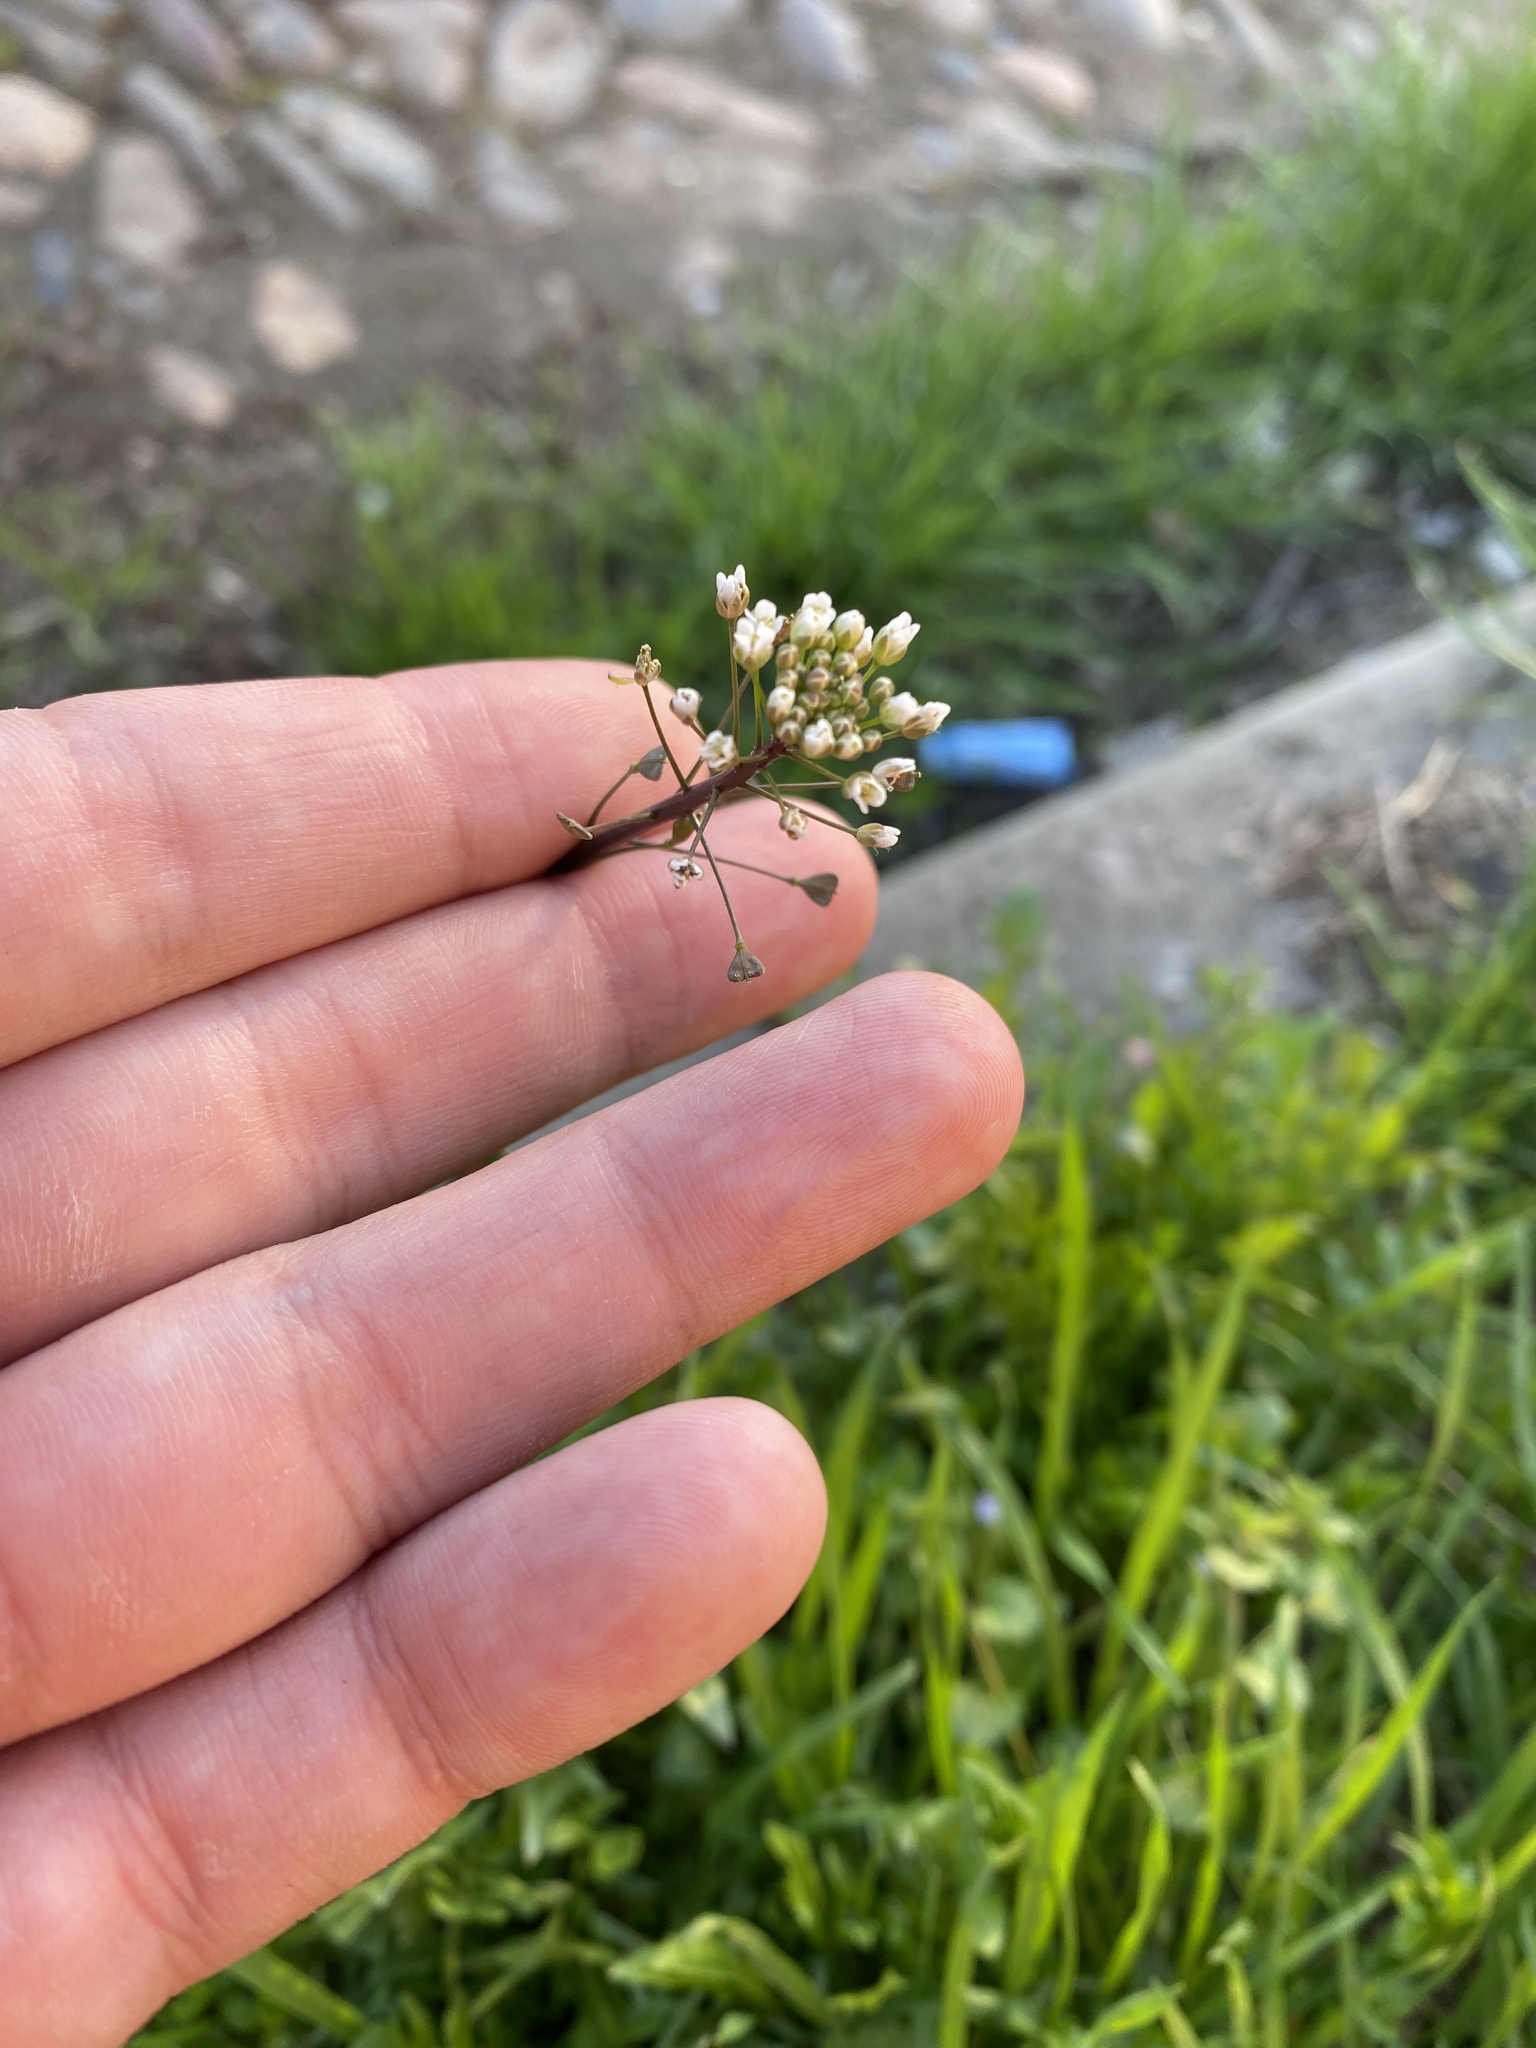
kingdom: Plantae
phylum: Tracheophyta
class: Magnoliopsida
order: Brassicales
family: Brassicaceae
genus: Capsella
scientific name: Capsella bursa-pastoris
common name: Shepherd's purse
